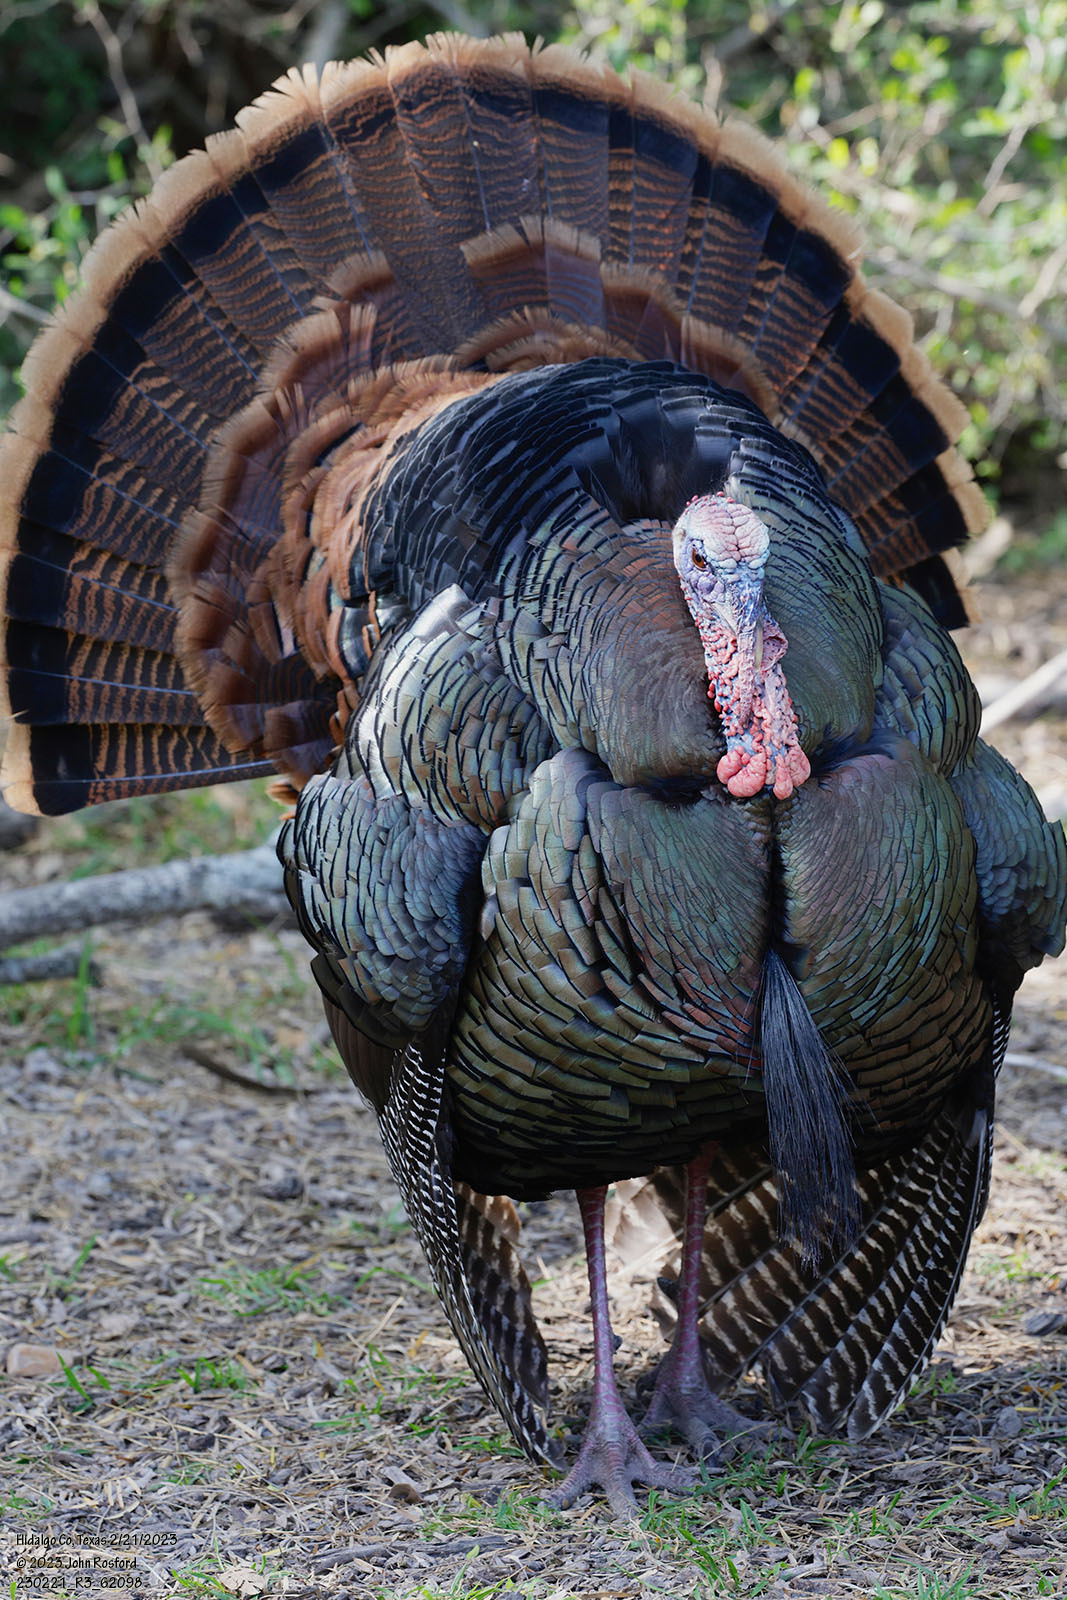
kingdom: Animalia
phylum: Chordata
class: Aves
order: Galliformes
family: Phasianidae
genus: Meleagris
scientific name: Meleagris gallopavo
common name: Wild turkey
